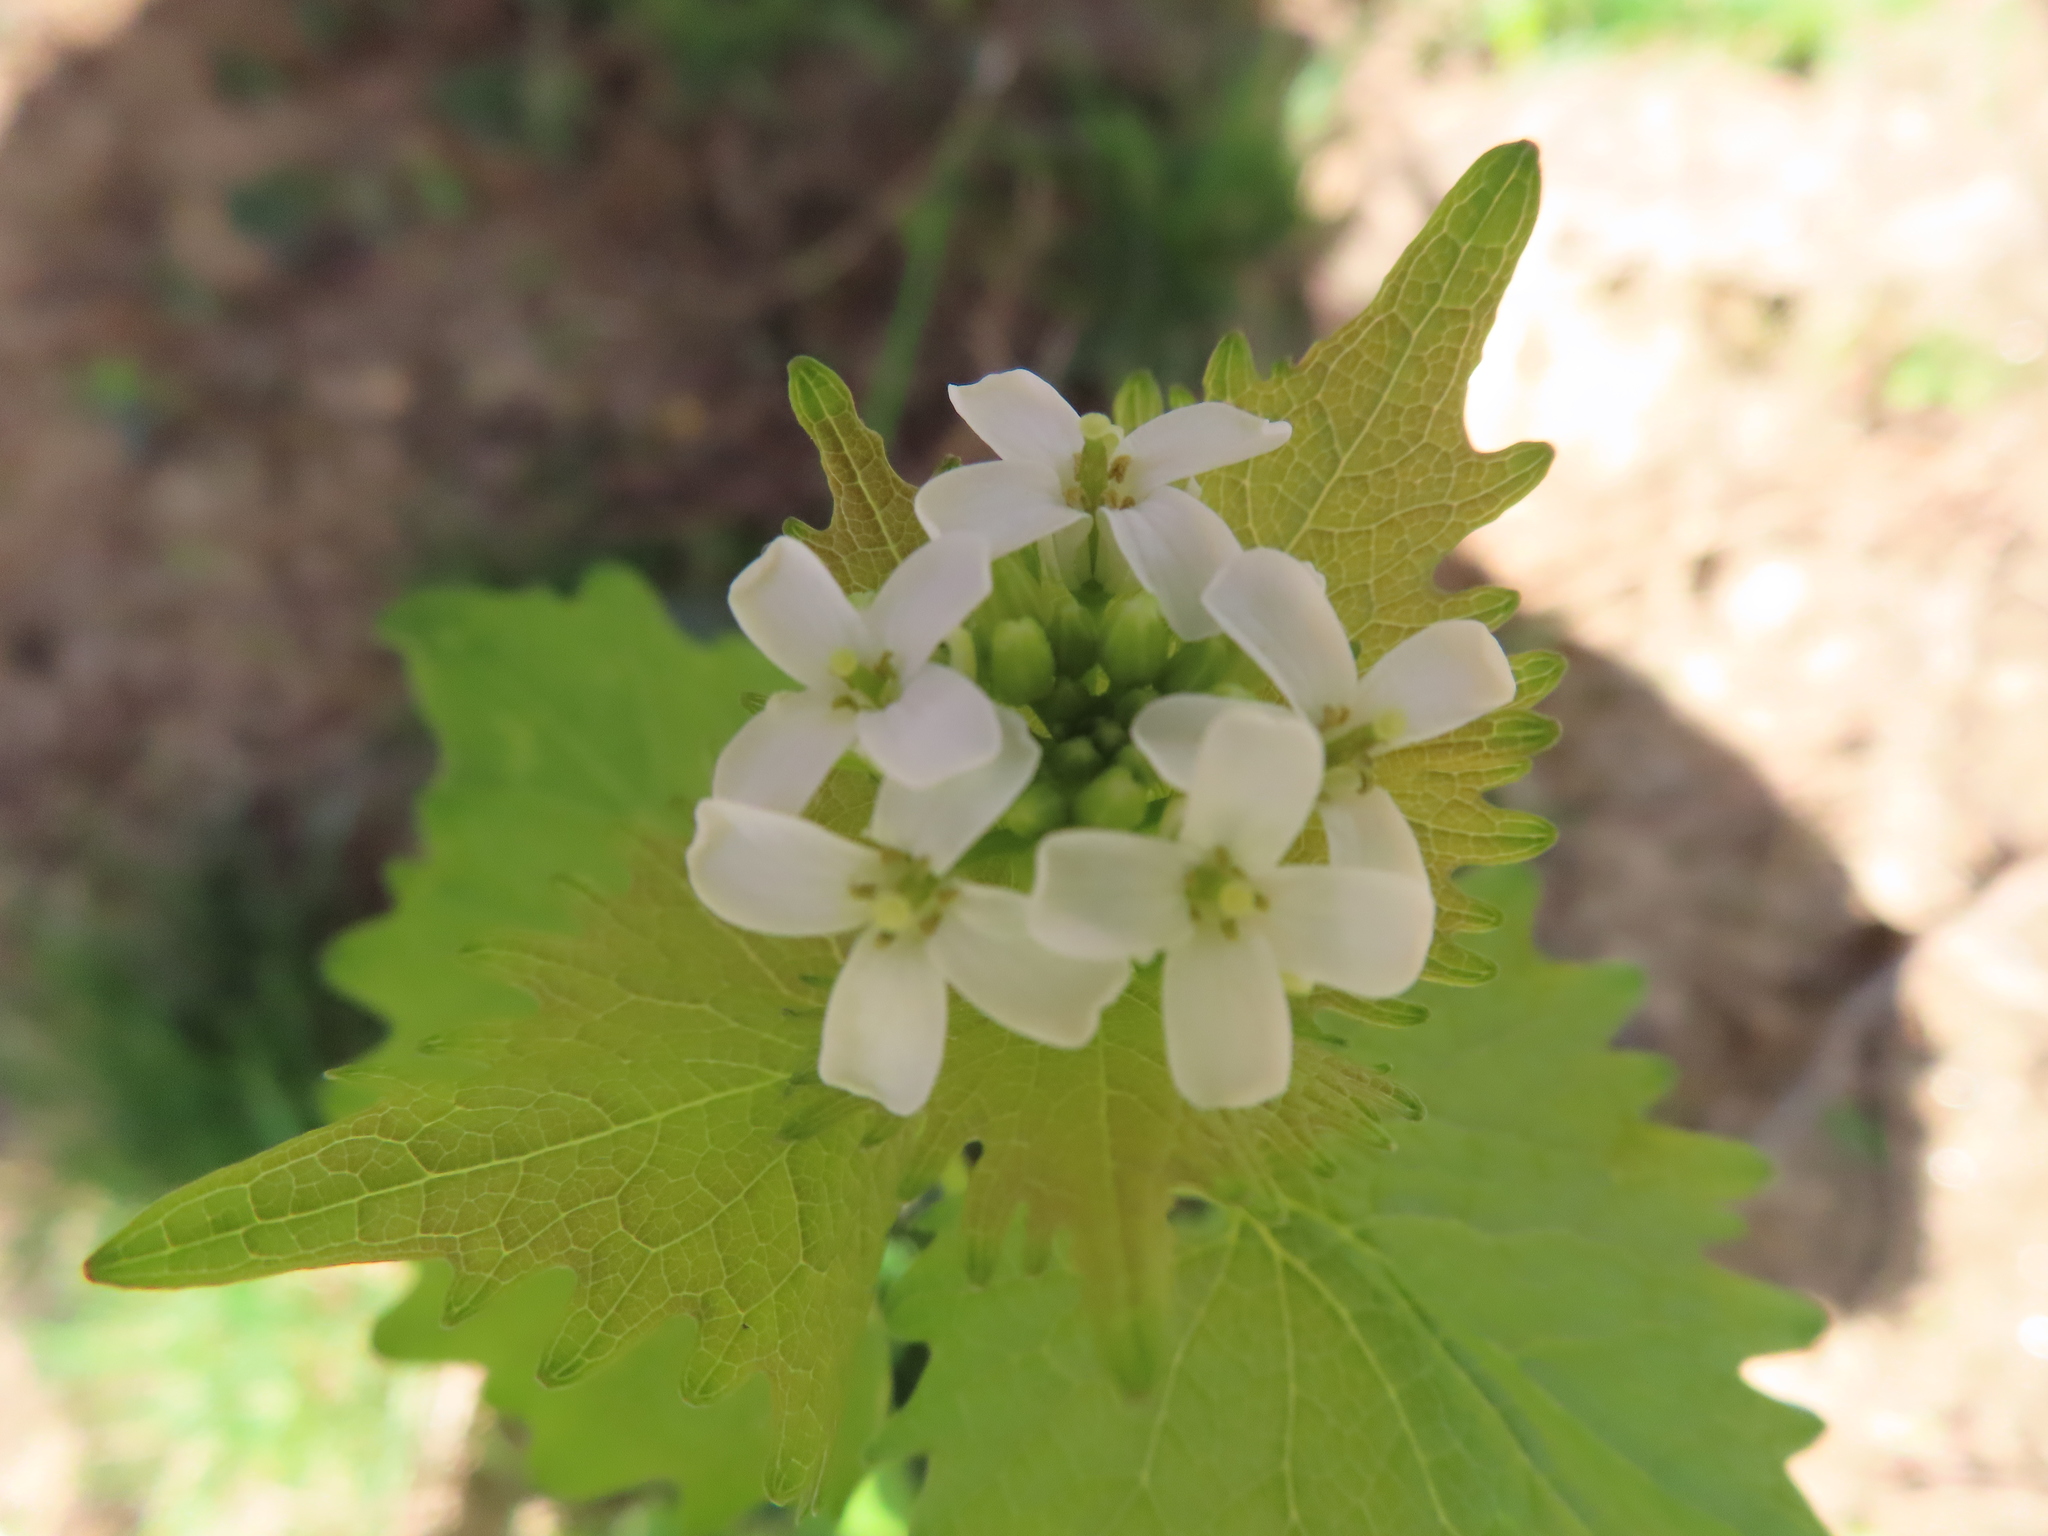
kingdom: Plantae
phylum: Tracheophyta
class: Magnoliopsida
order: Brassicales
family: Brassicaceae
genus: Alliaria
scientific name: Alliaria petiolata
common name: Garlic mustard
